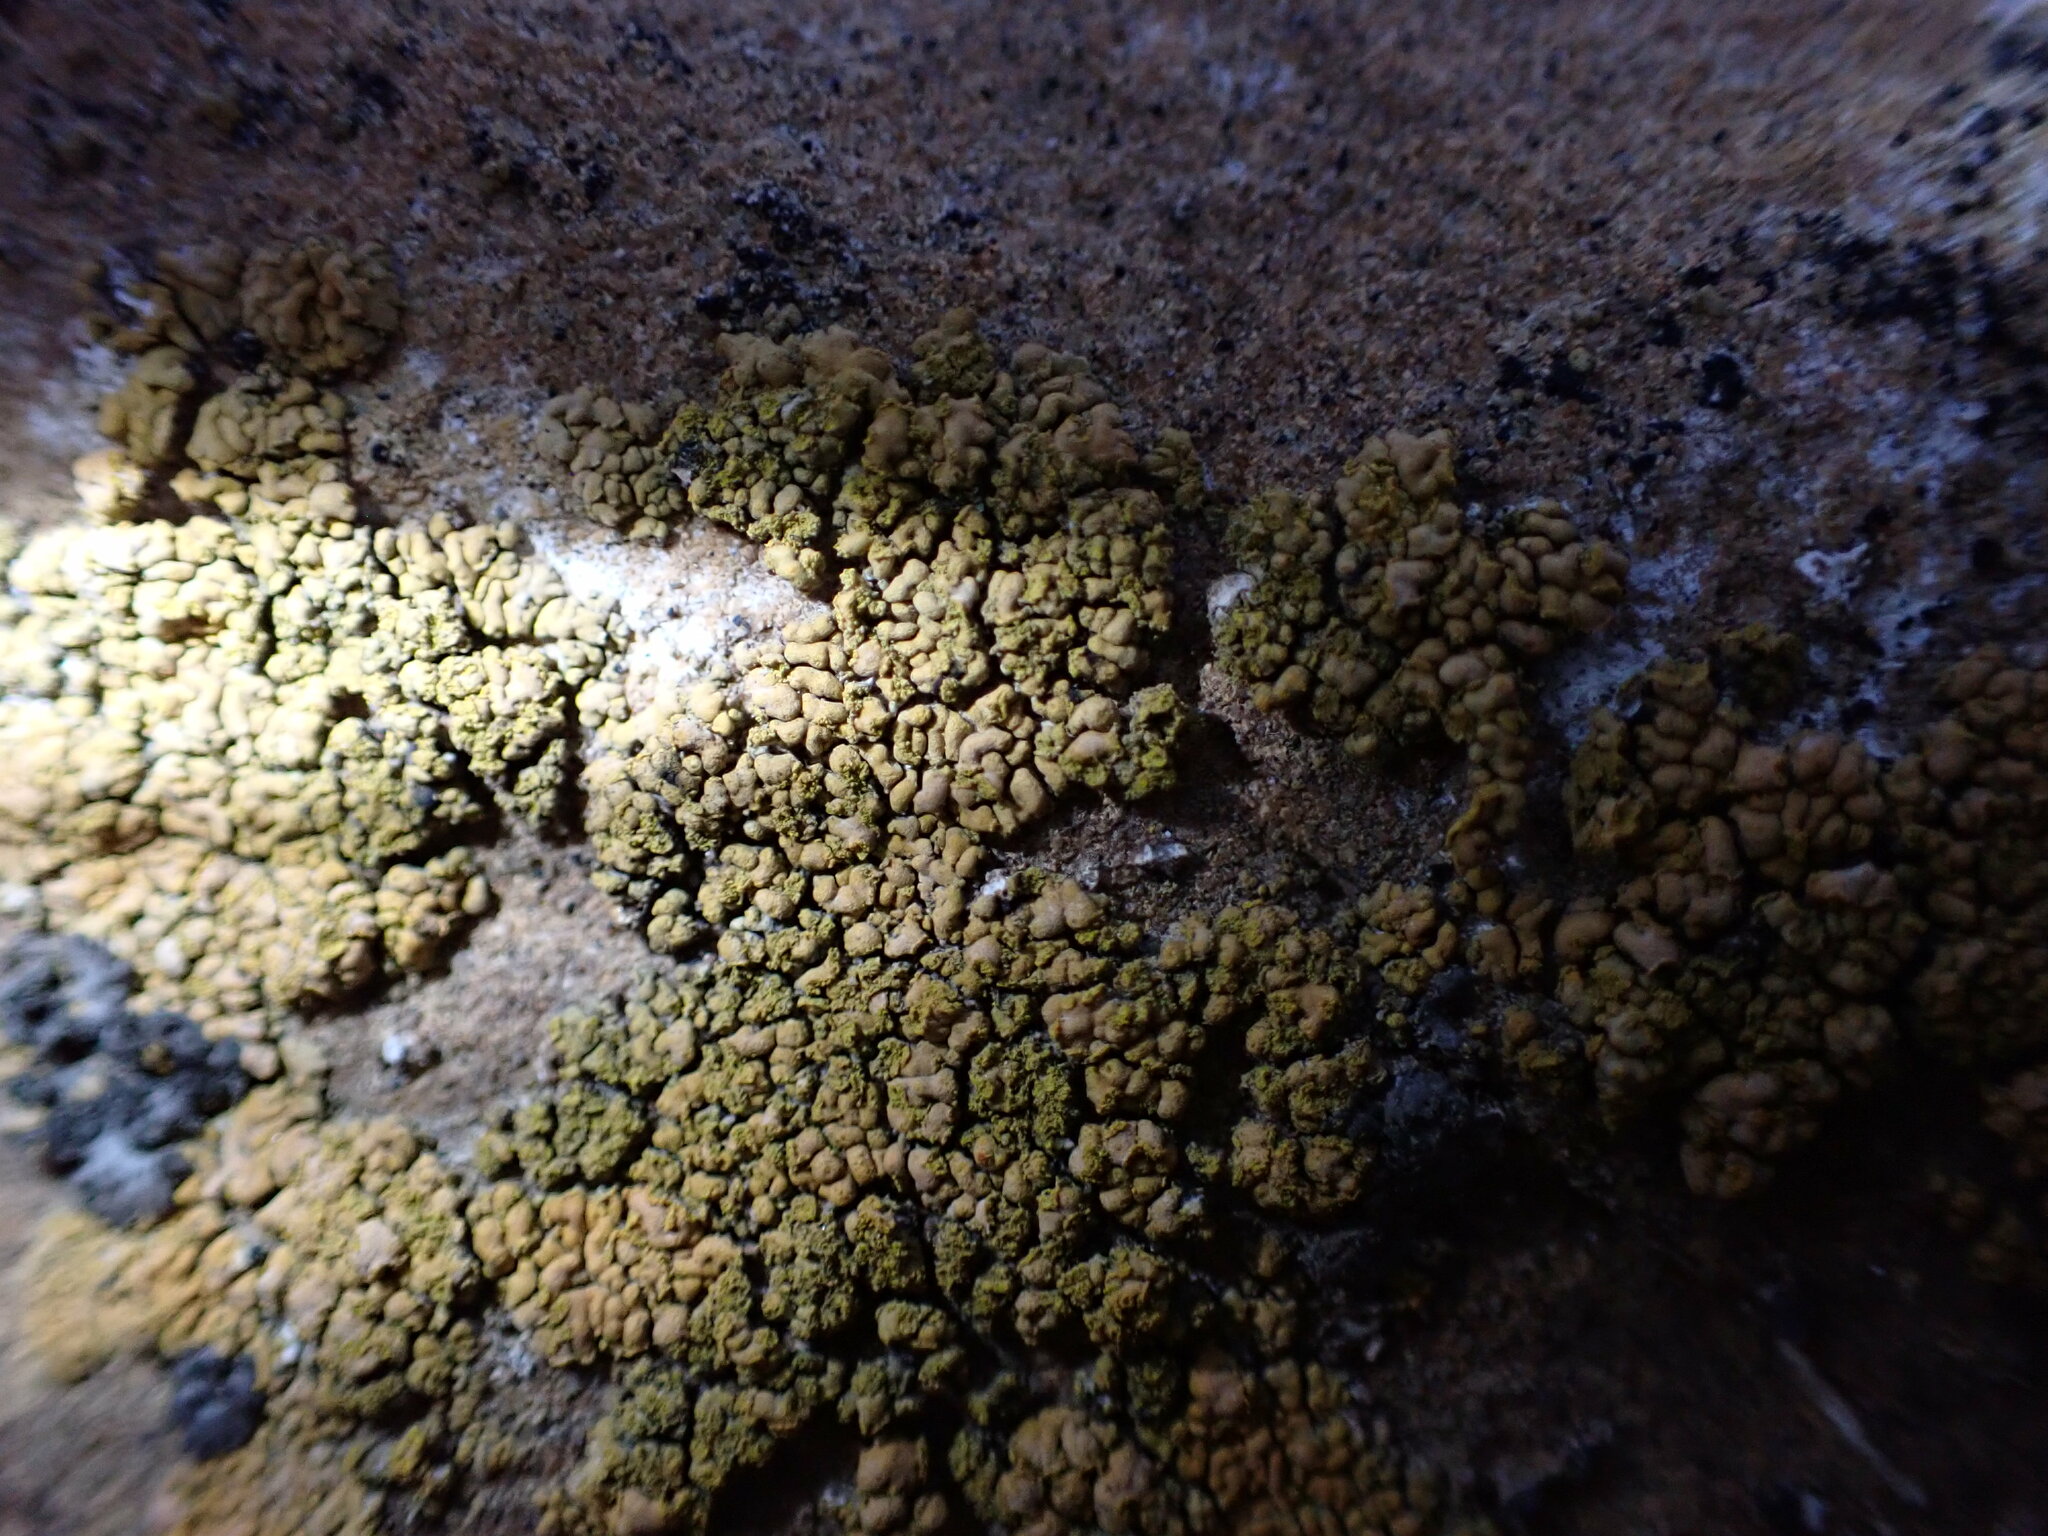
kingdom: Fungi
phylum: Ascomycota
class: Lecanoromycetes
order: Teloschistales
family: Teloschistaceae
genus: Calogaya
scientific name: Calogaya decipiens
